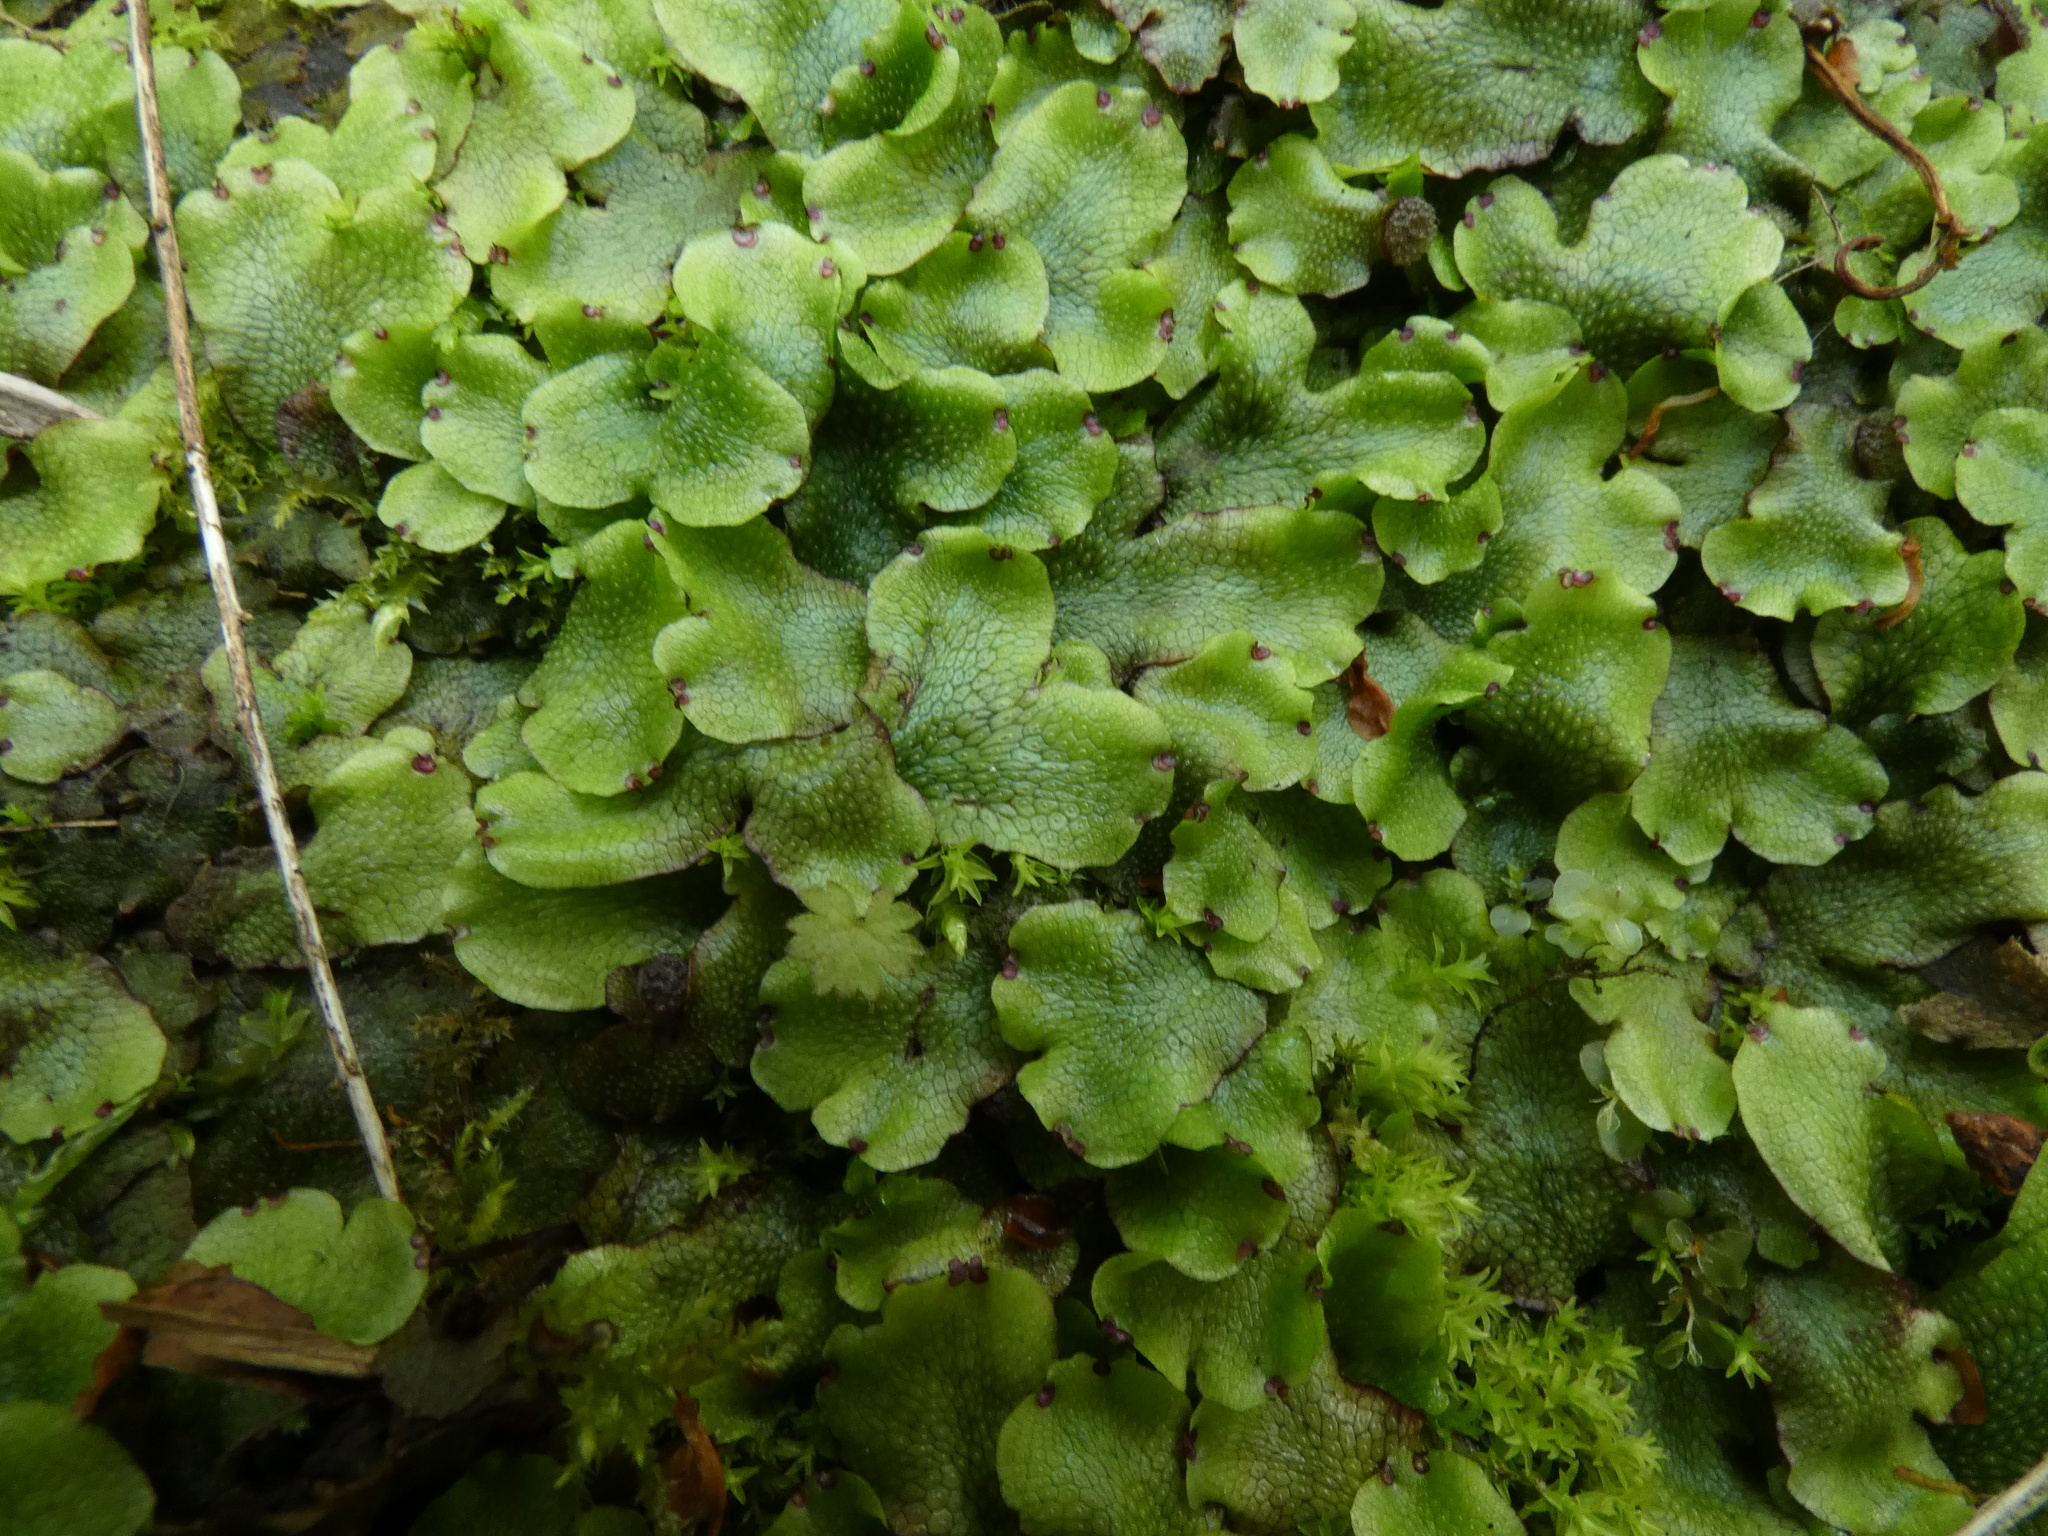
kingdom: Plantae
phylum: Marchantiophyta
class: Marchantiopsida
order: Marchantiales
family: Conocephalaceae
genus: Conocephalum
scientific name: Conocephalum salebrosum
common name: Cat-tongue liverwort
